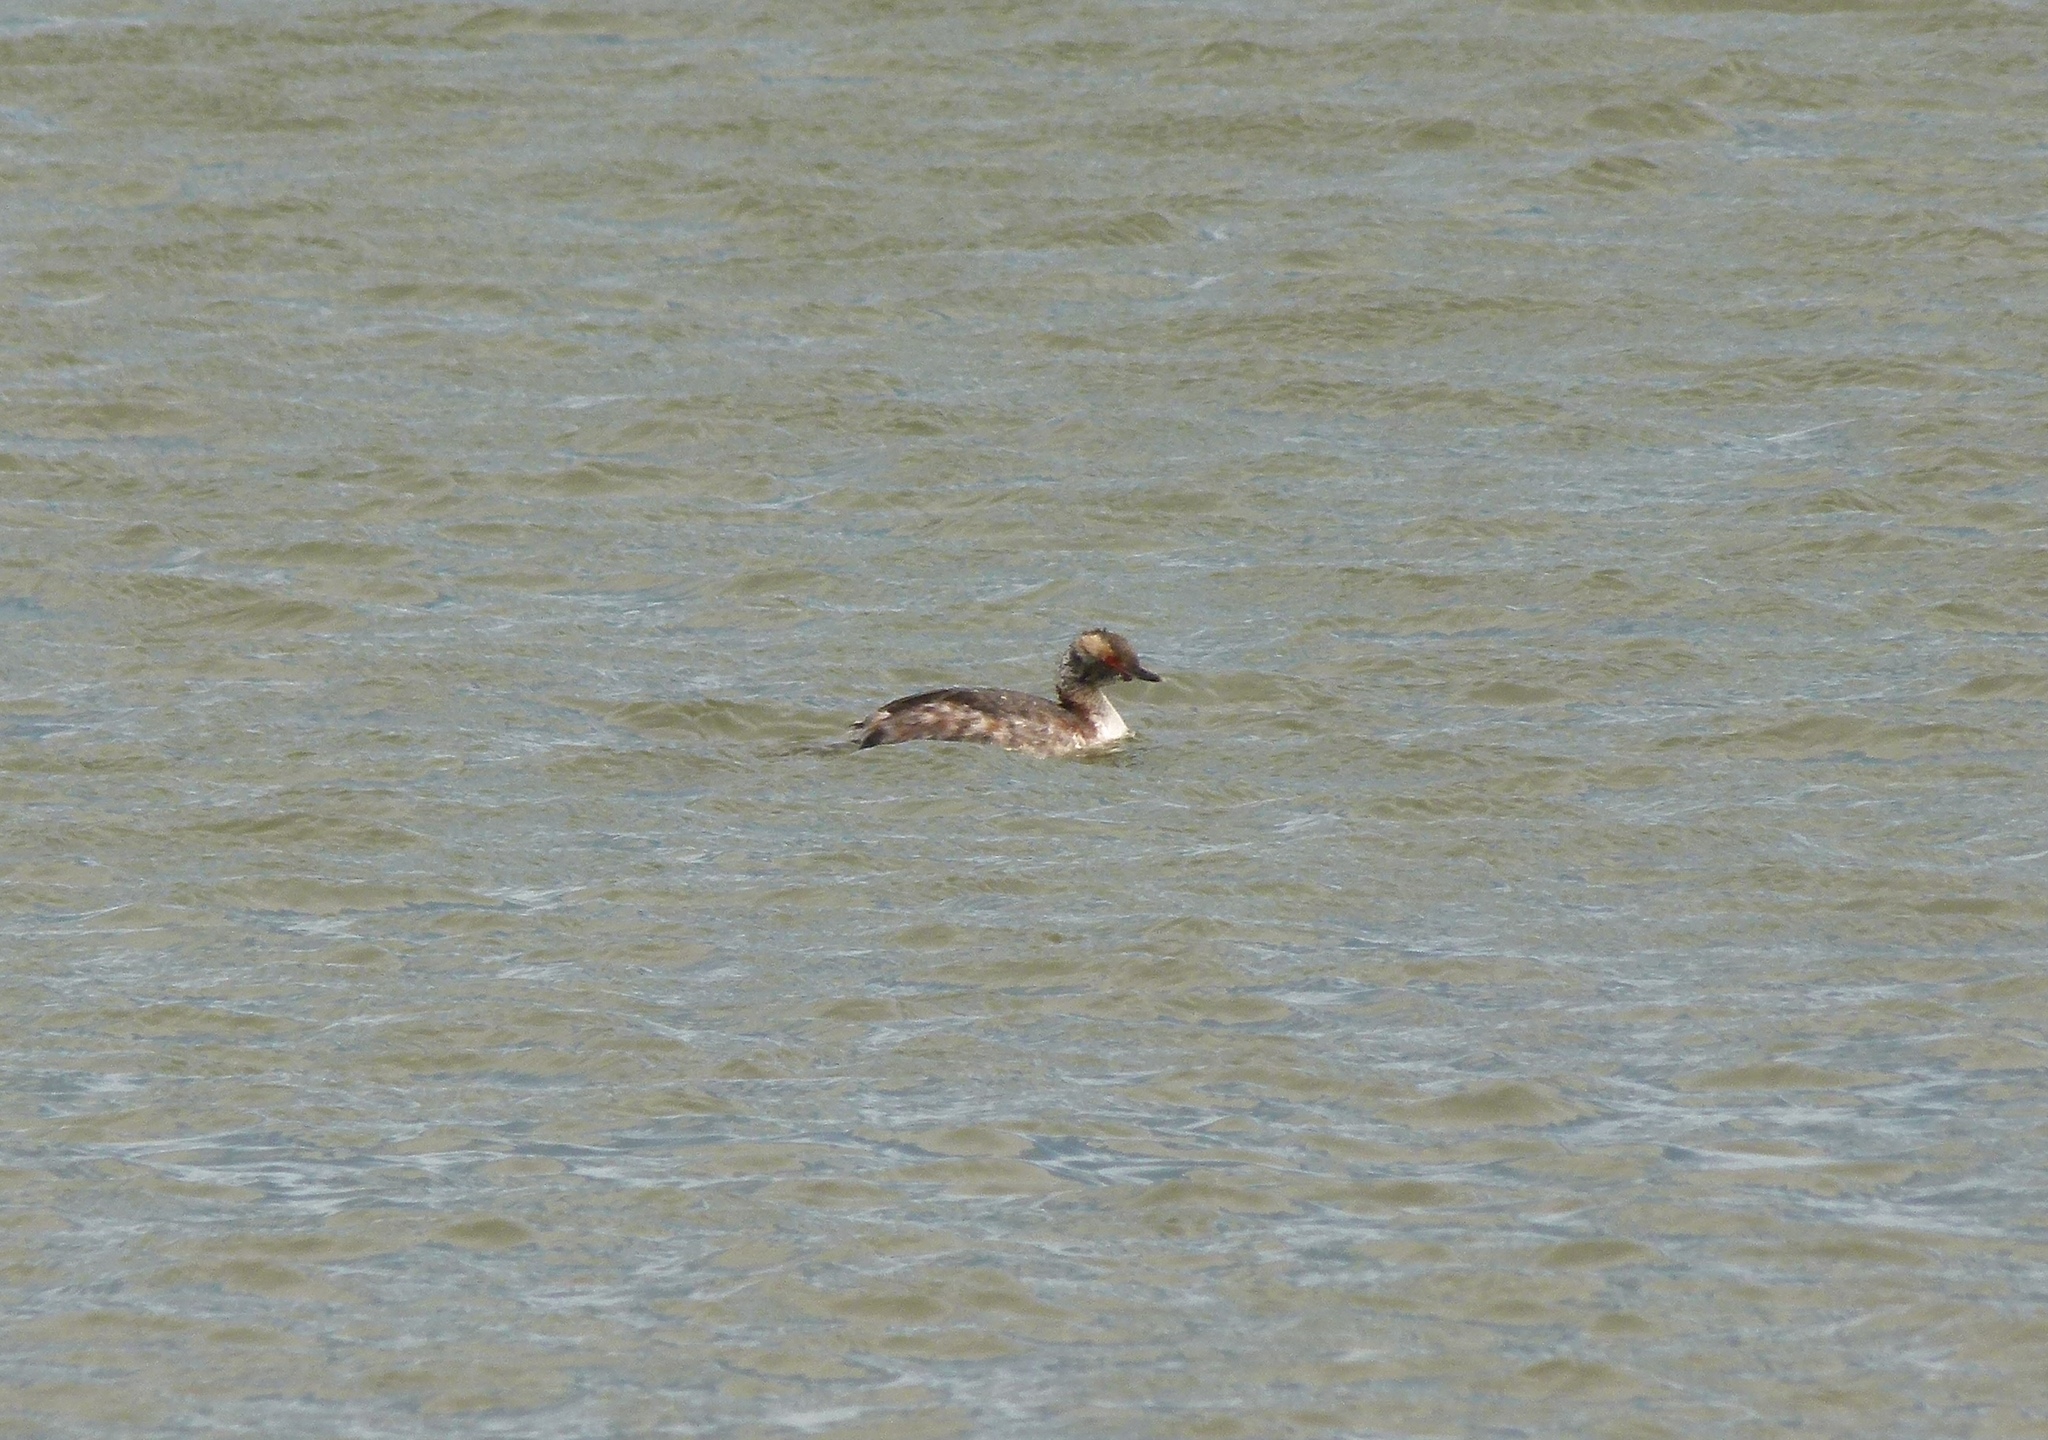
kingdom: Animalia
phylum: Chordata
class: Aves
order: Podicipediformes
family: Podicipedidae
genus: Podiceps
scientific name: Podiceps auritus
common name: Horned grebe
